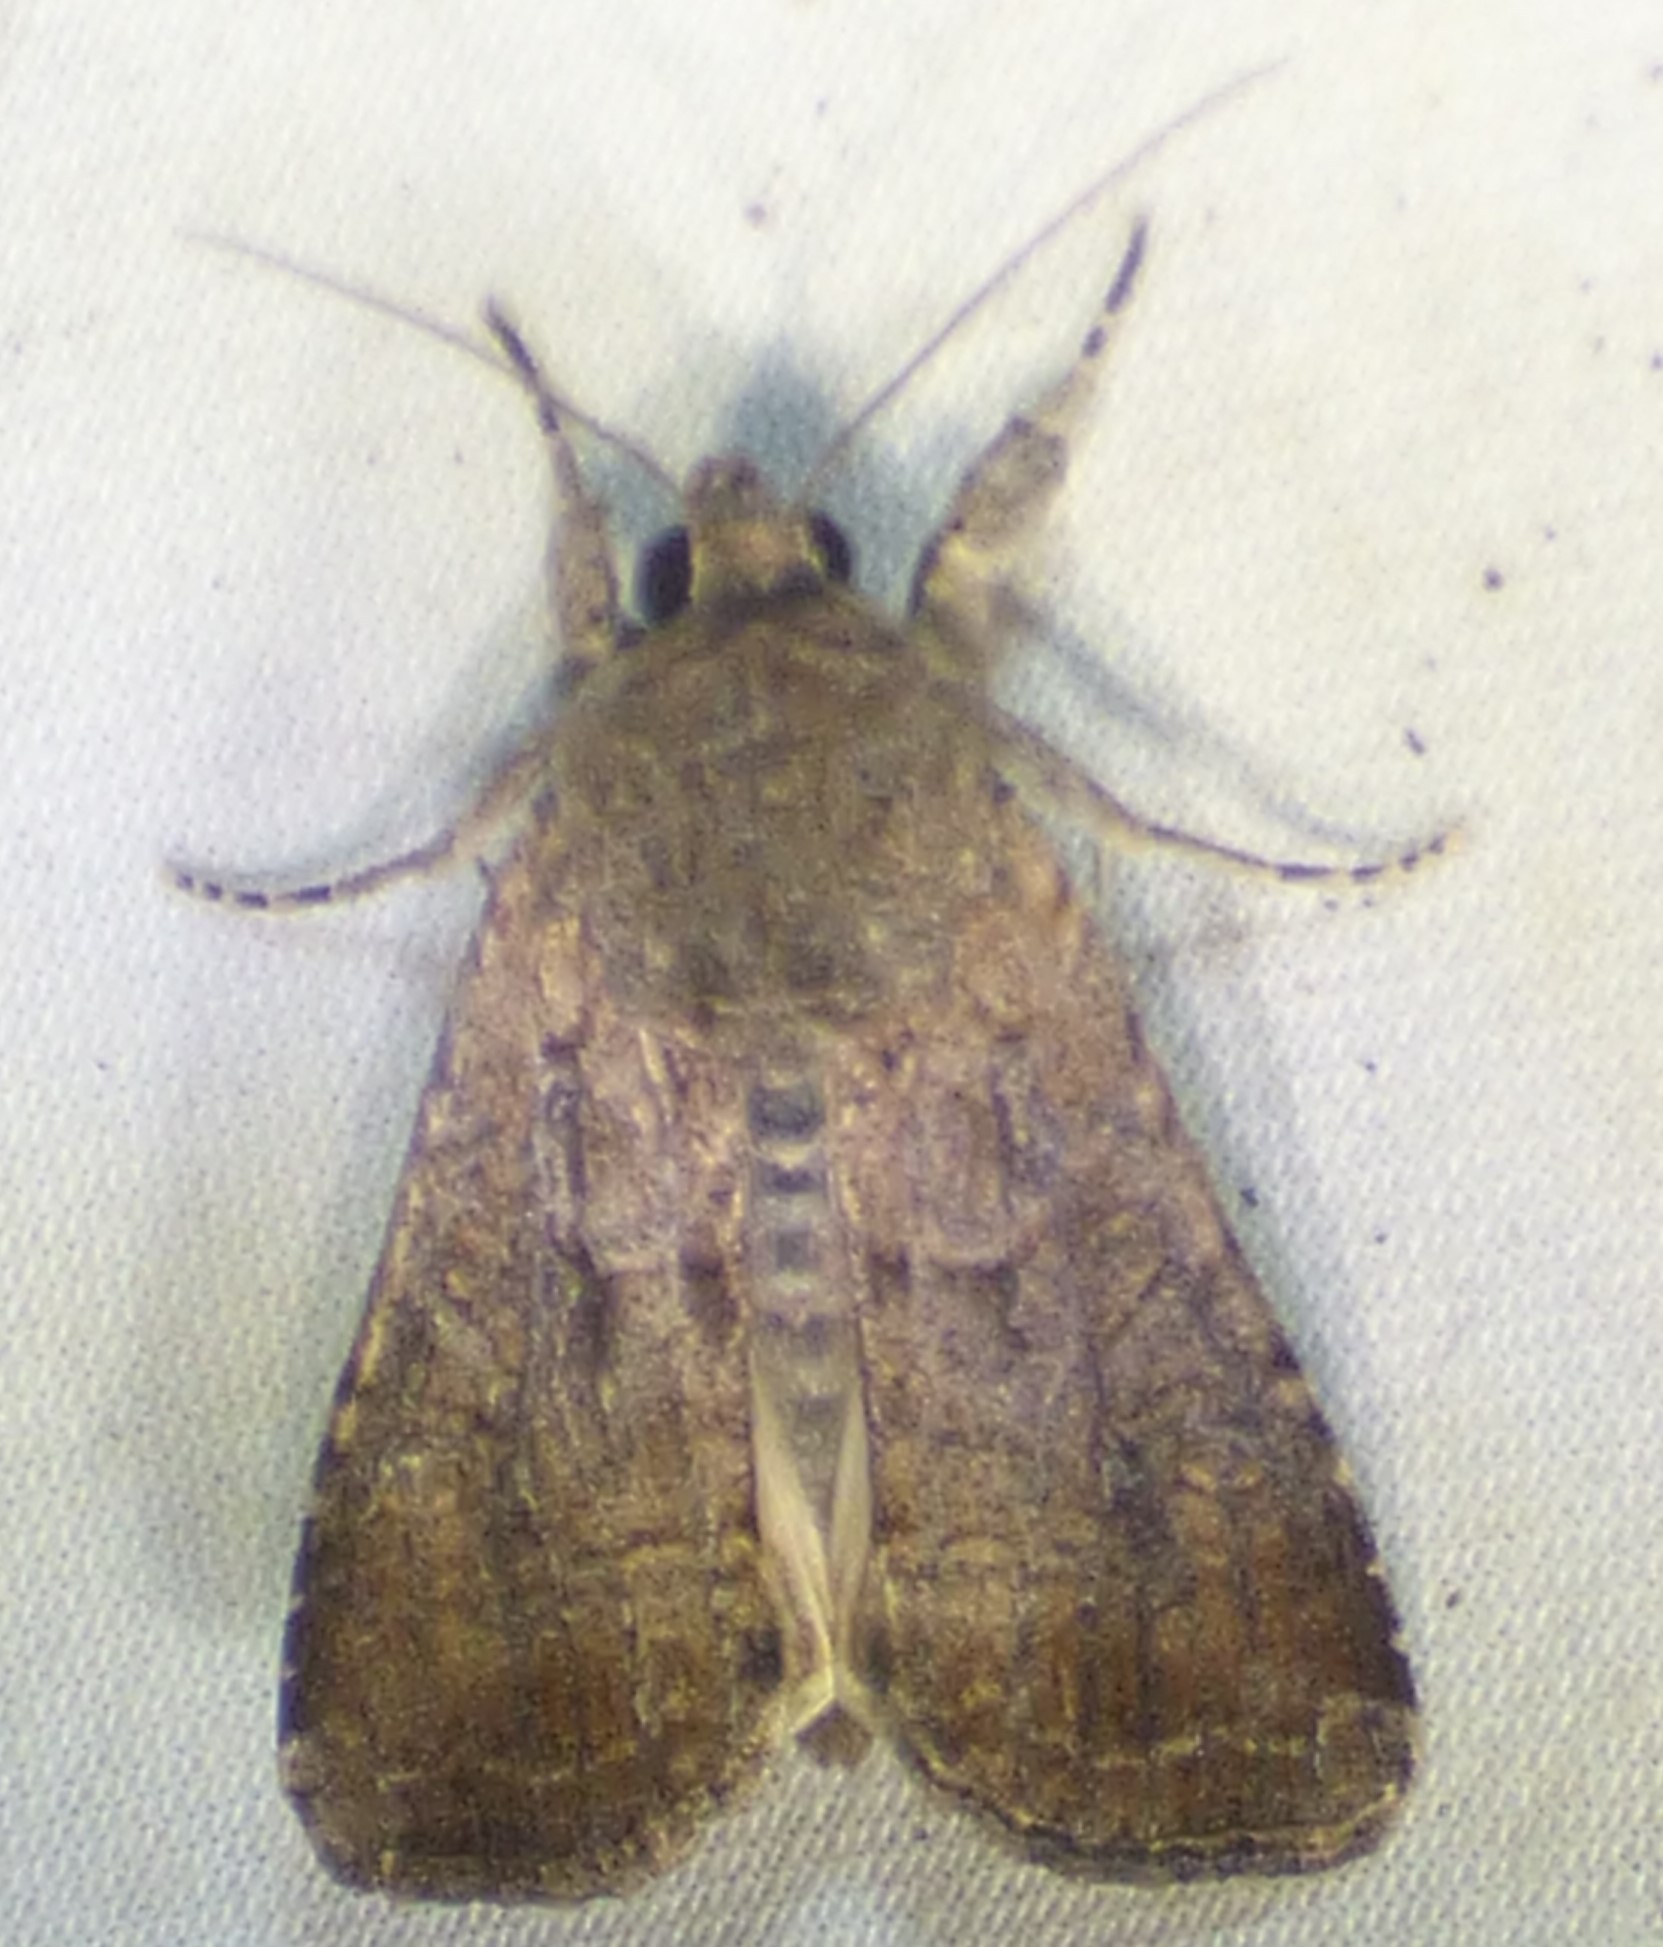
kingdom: Animalia
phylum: Arthropoda
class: Insecta
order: Lepidoptera
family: Noctuidae
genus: Spodoptera
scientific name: Spodoptera frugiperda
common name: Fall armyworm
